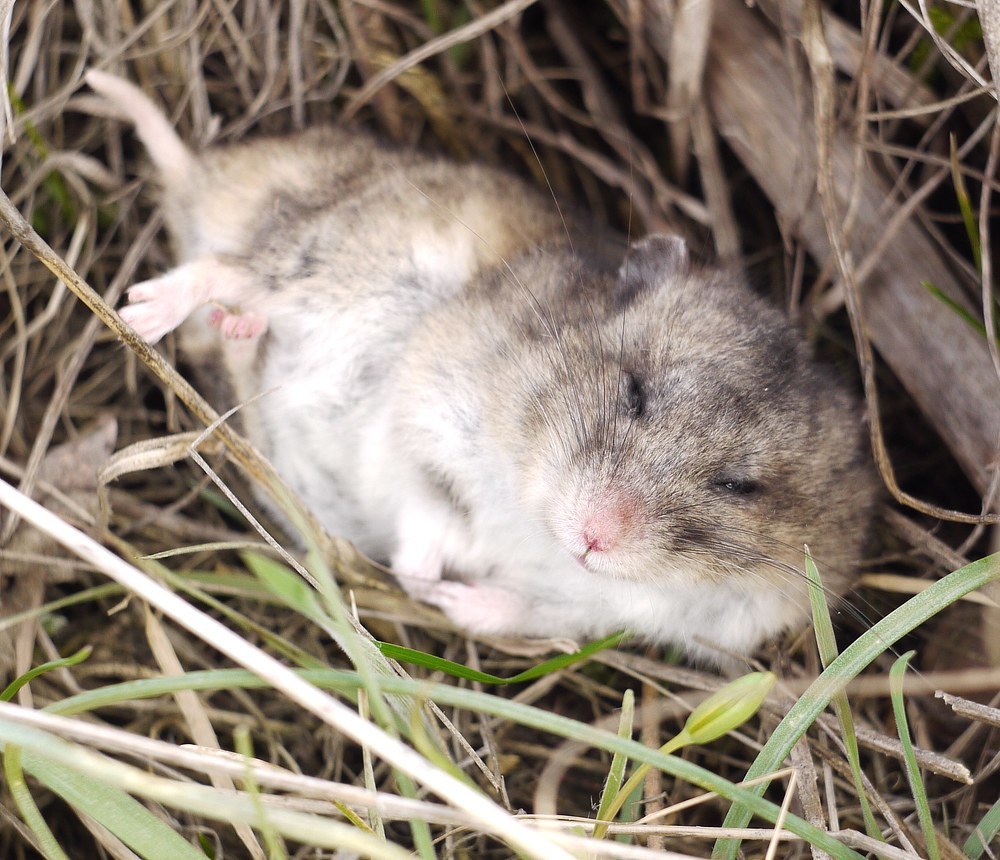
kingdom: Animalia
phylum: Chordata
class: Mammalia
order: Rodentia
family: Cricetidae
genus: Nothocricetulus
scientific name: Nothocricetulus
